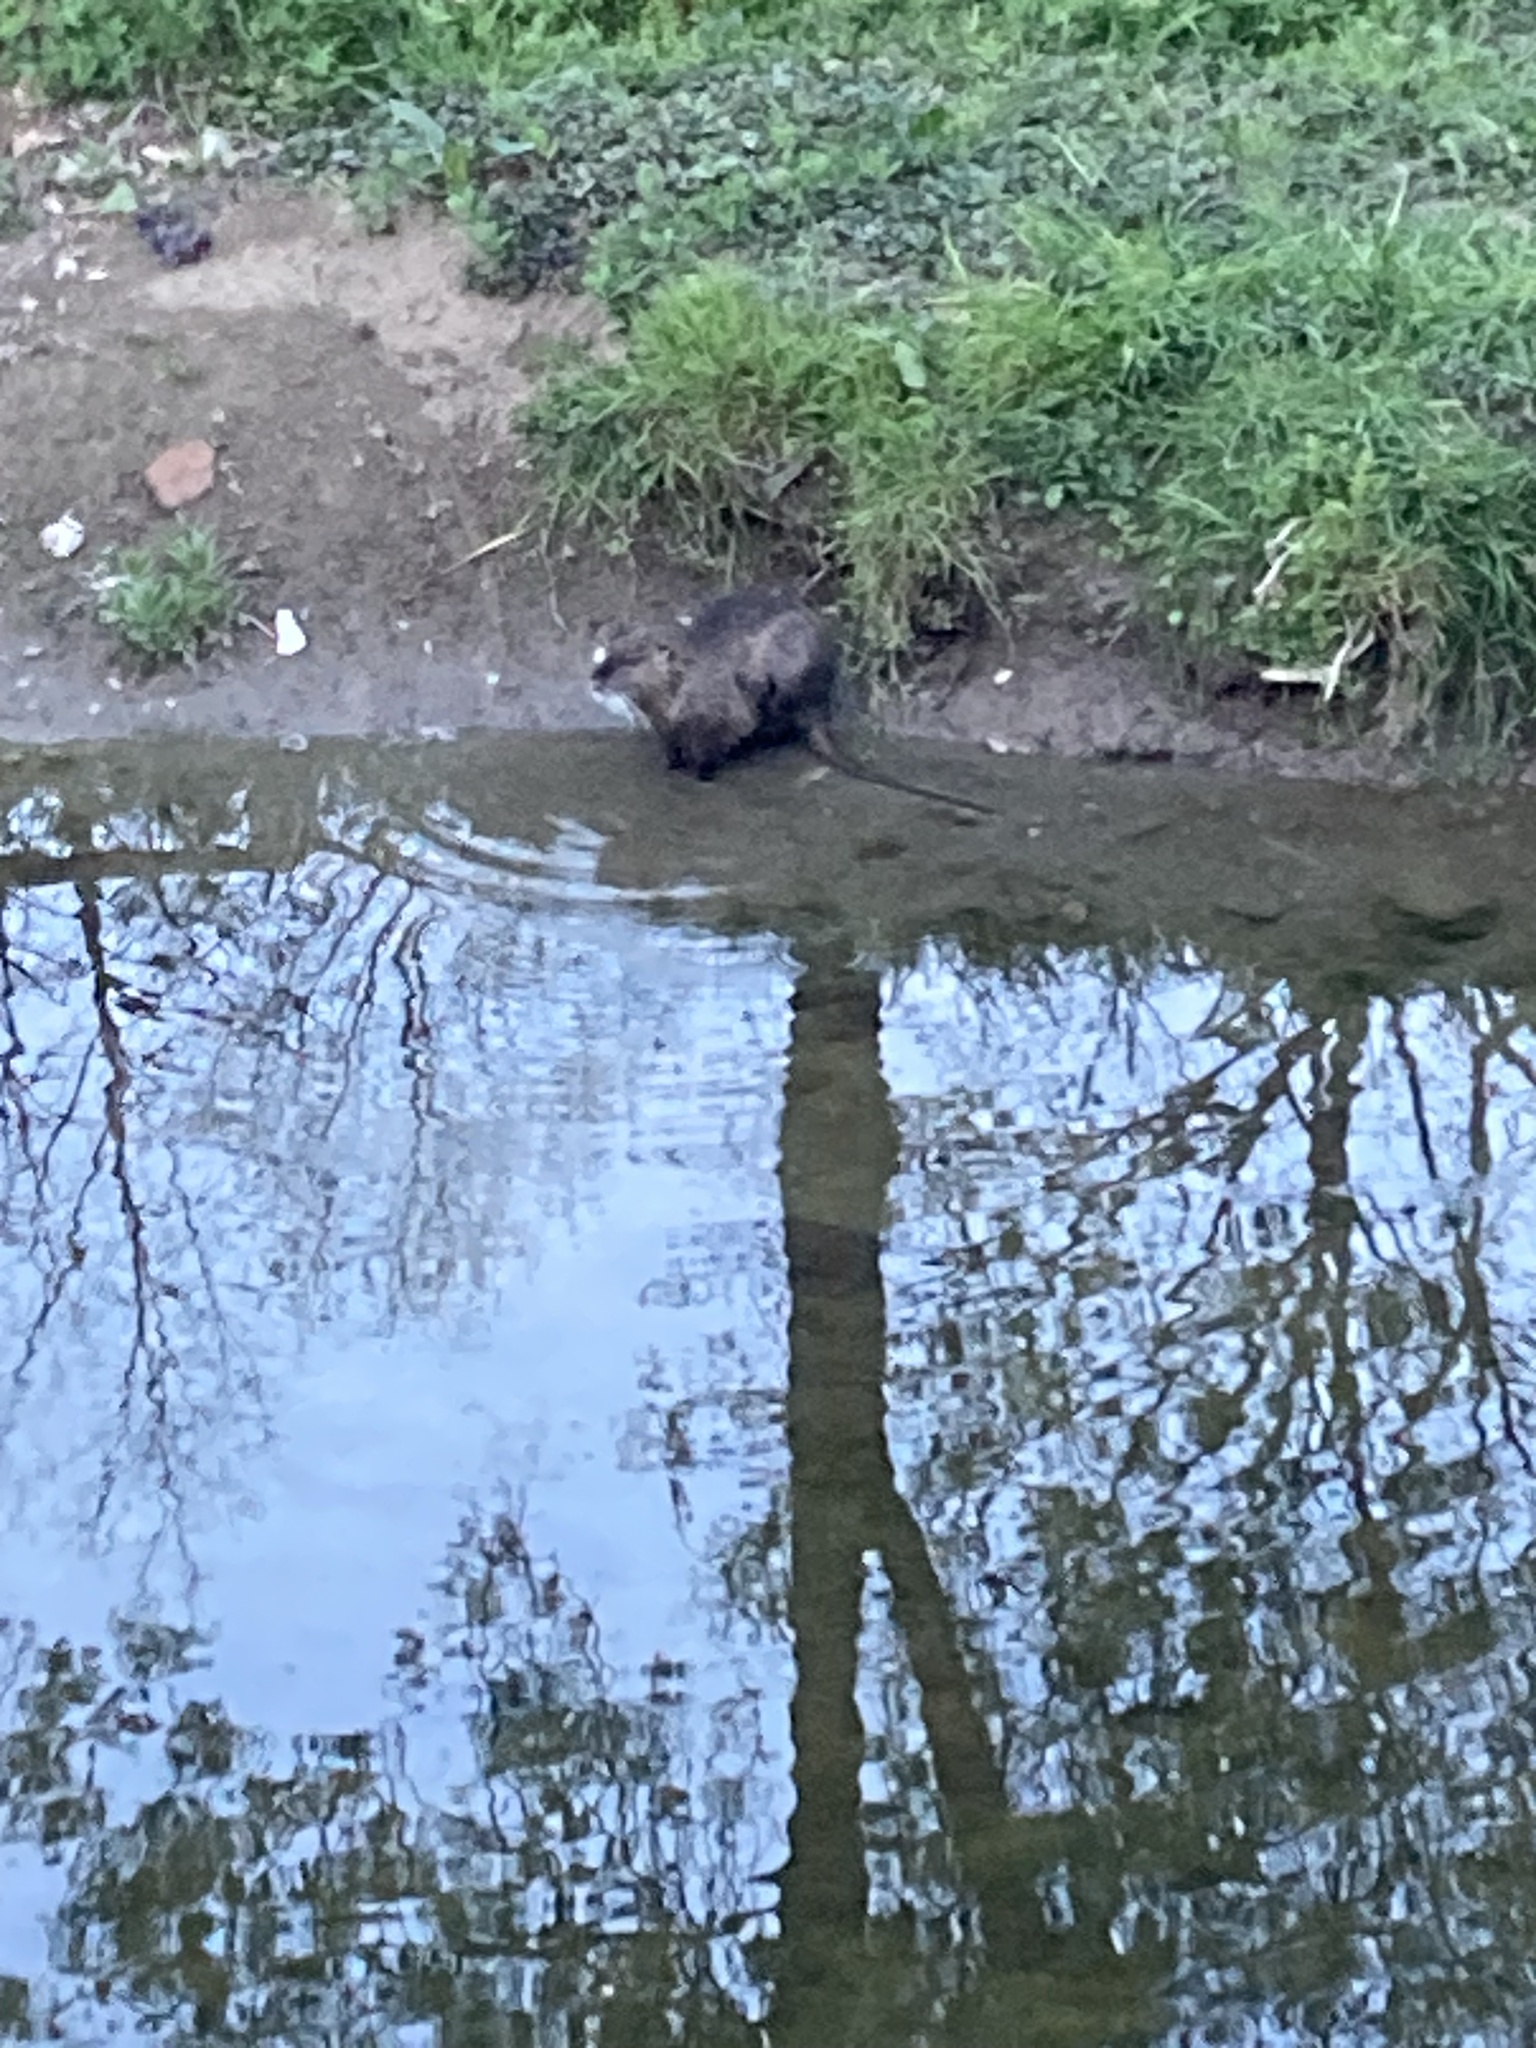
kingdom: Animalia
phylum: Chordata
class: Mammalia
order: Rodentia
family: Myocastoridae
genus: Myocastor
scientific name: Myocastor coypus
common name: Coypu
